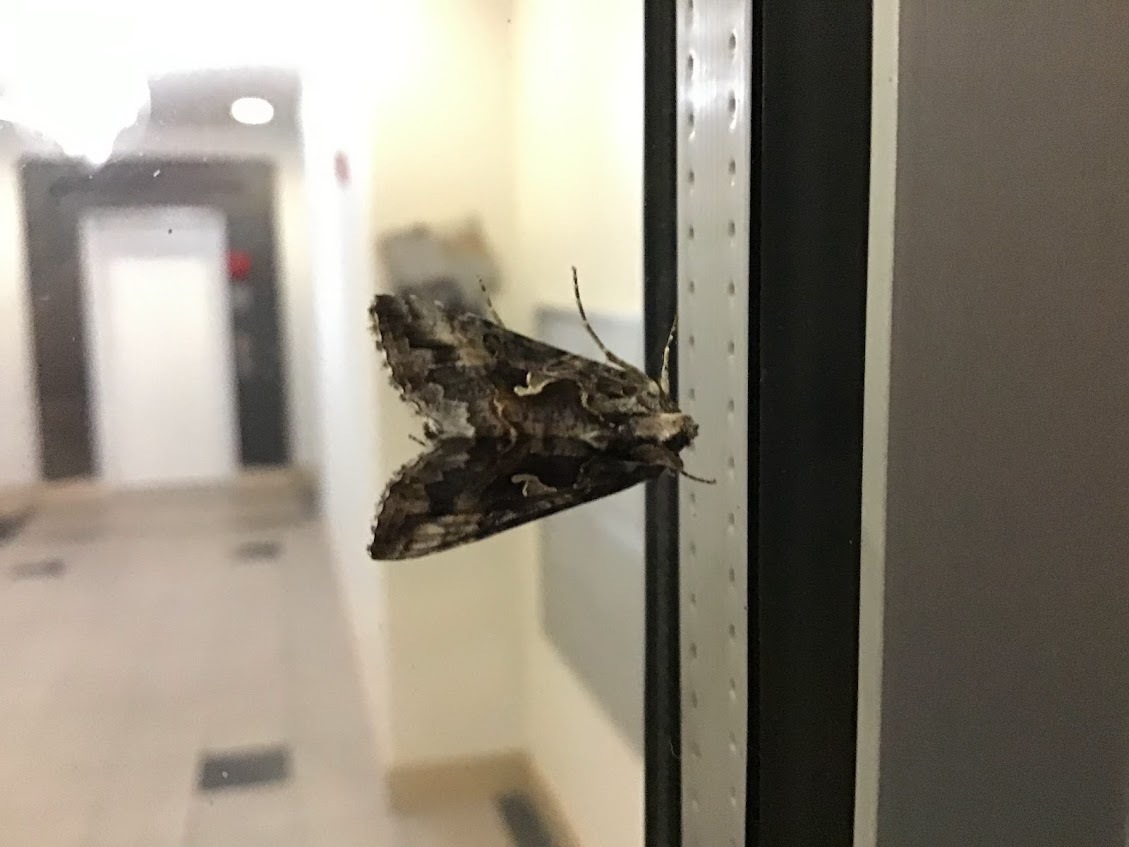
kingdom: Animalia
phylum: Arthropoda
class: Insecta
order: Lepidoptera
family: Noctuidae
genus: Autographa
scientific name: Autographa californica
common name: Alfalfa looper
